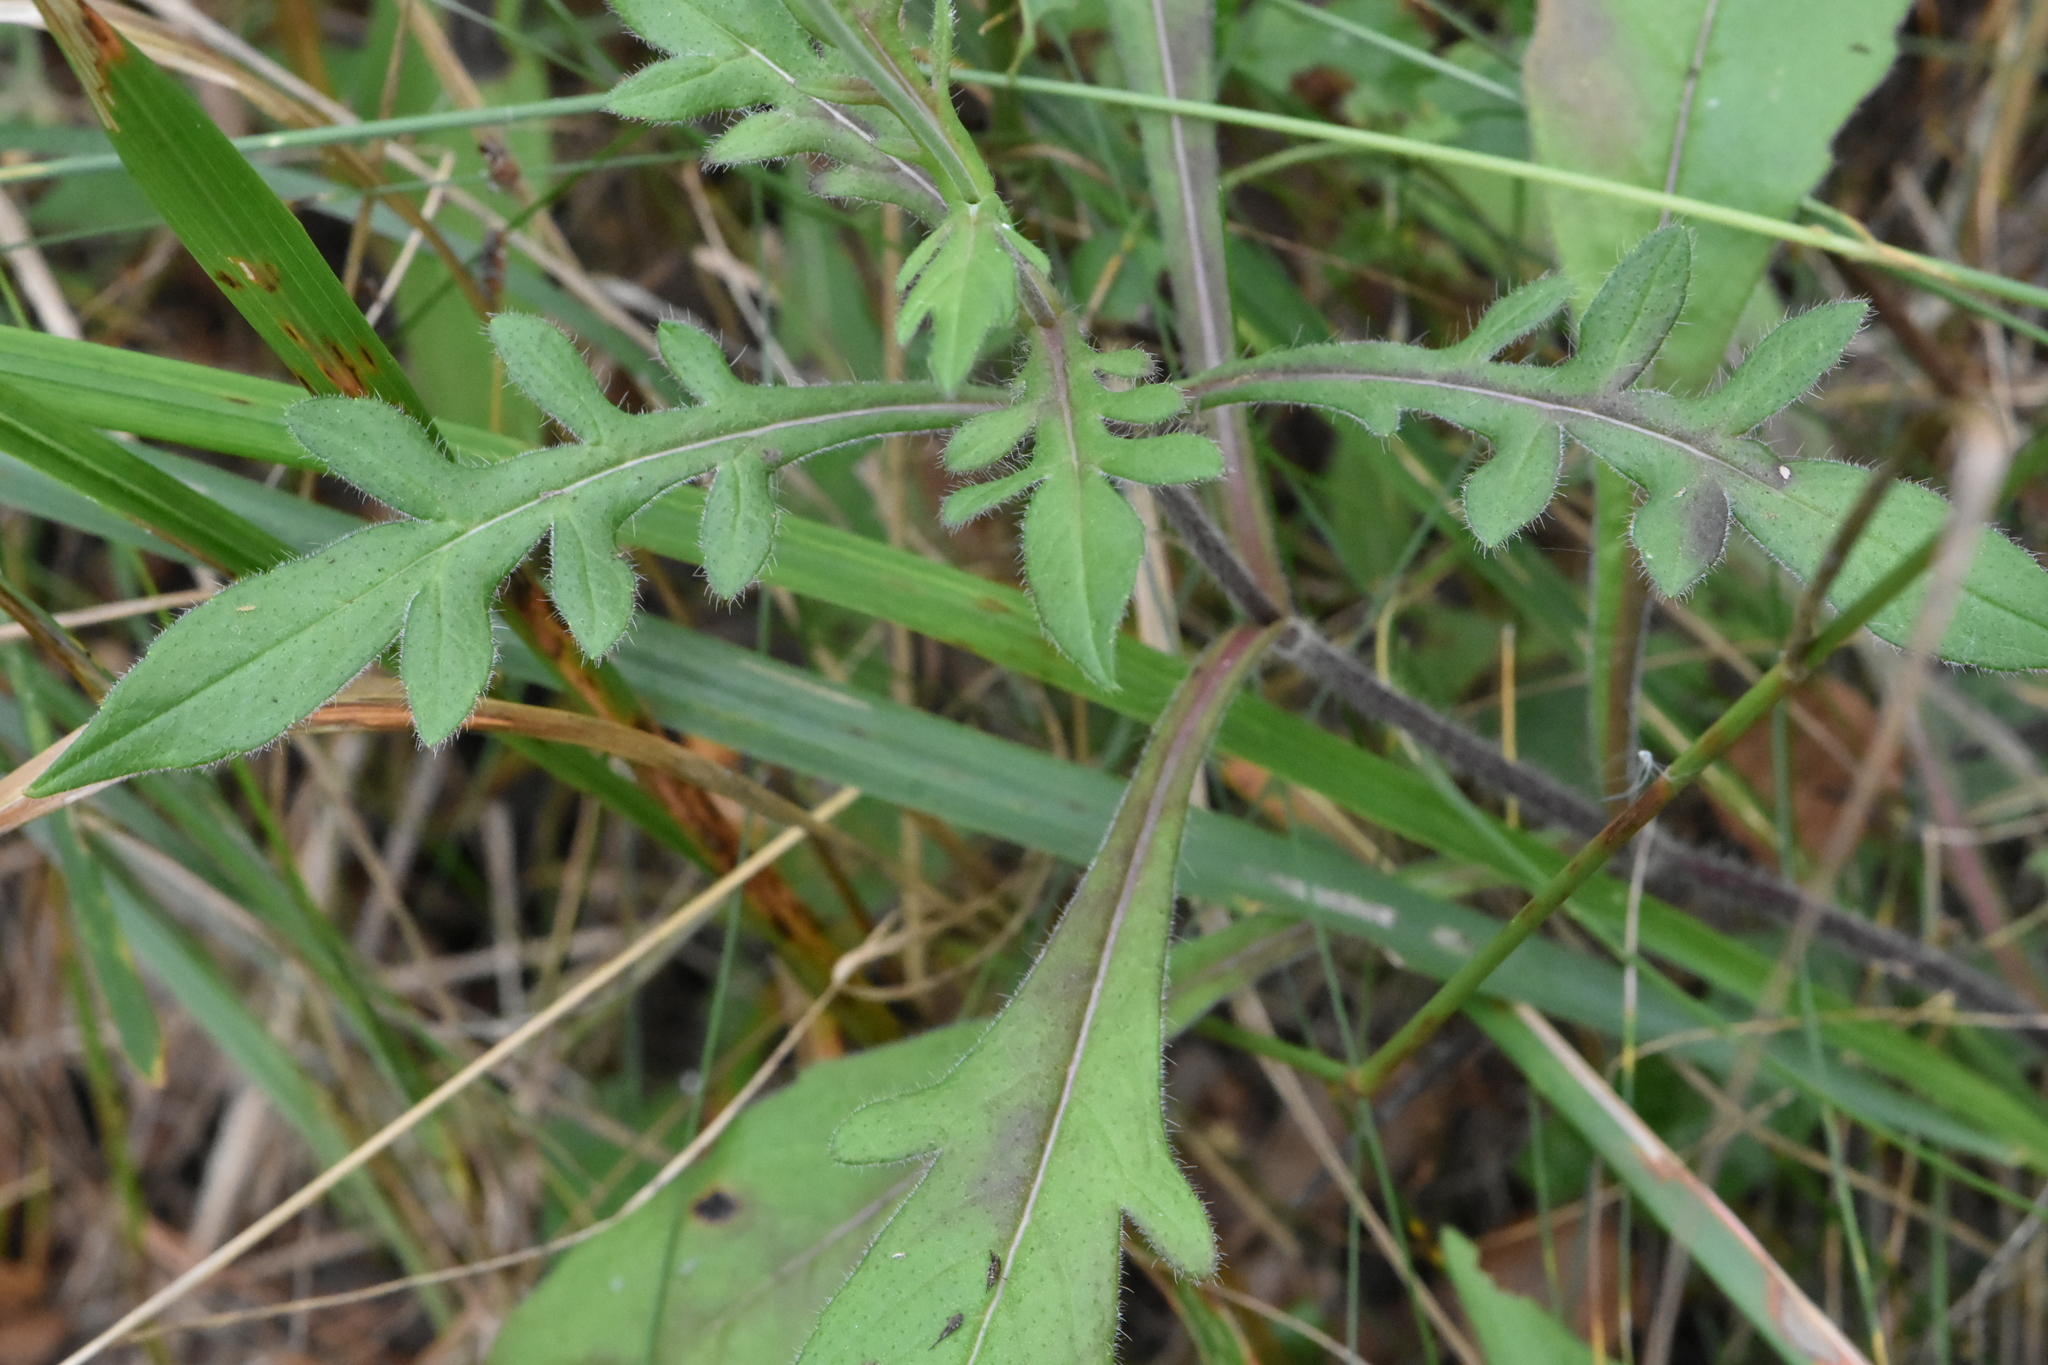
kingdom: Plantae
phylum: Tracheophyta
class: Magnoliopsida
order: Dipsacales
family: Caprifoliaceae
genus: Knautia
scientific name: Knautia arvensis
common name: Field scabiosa
